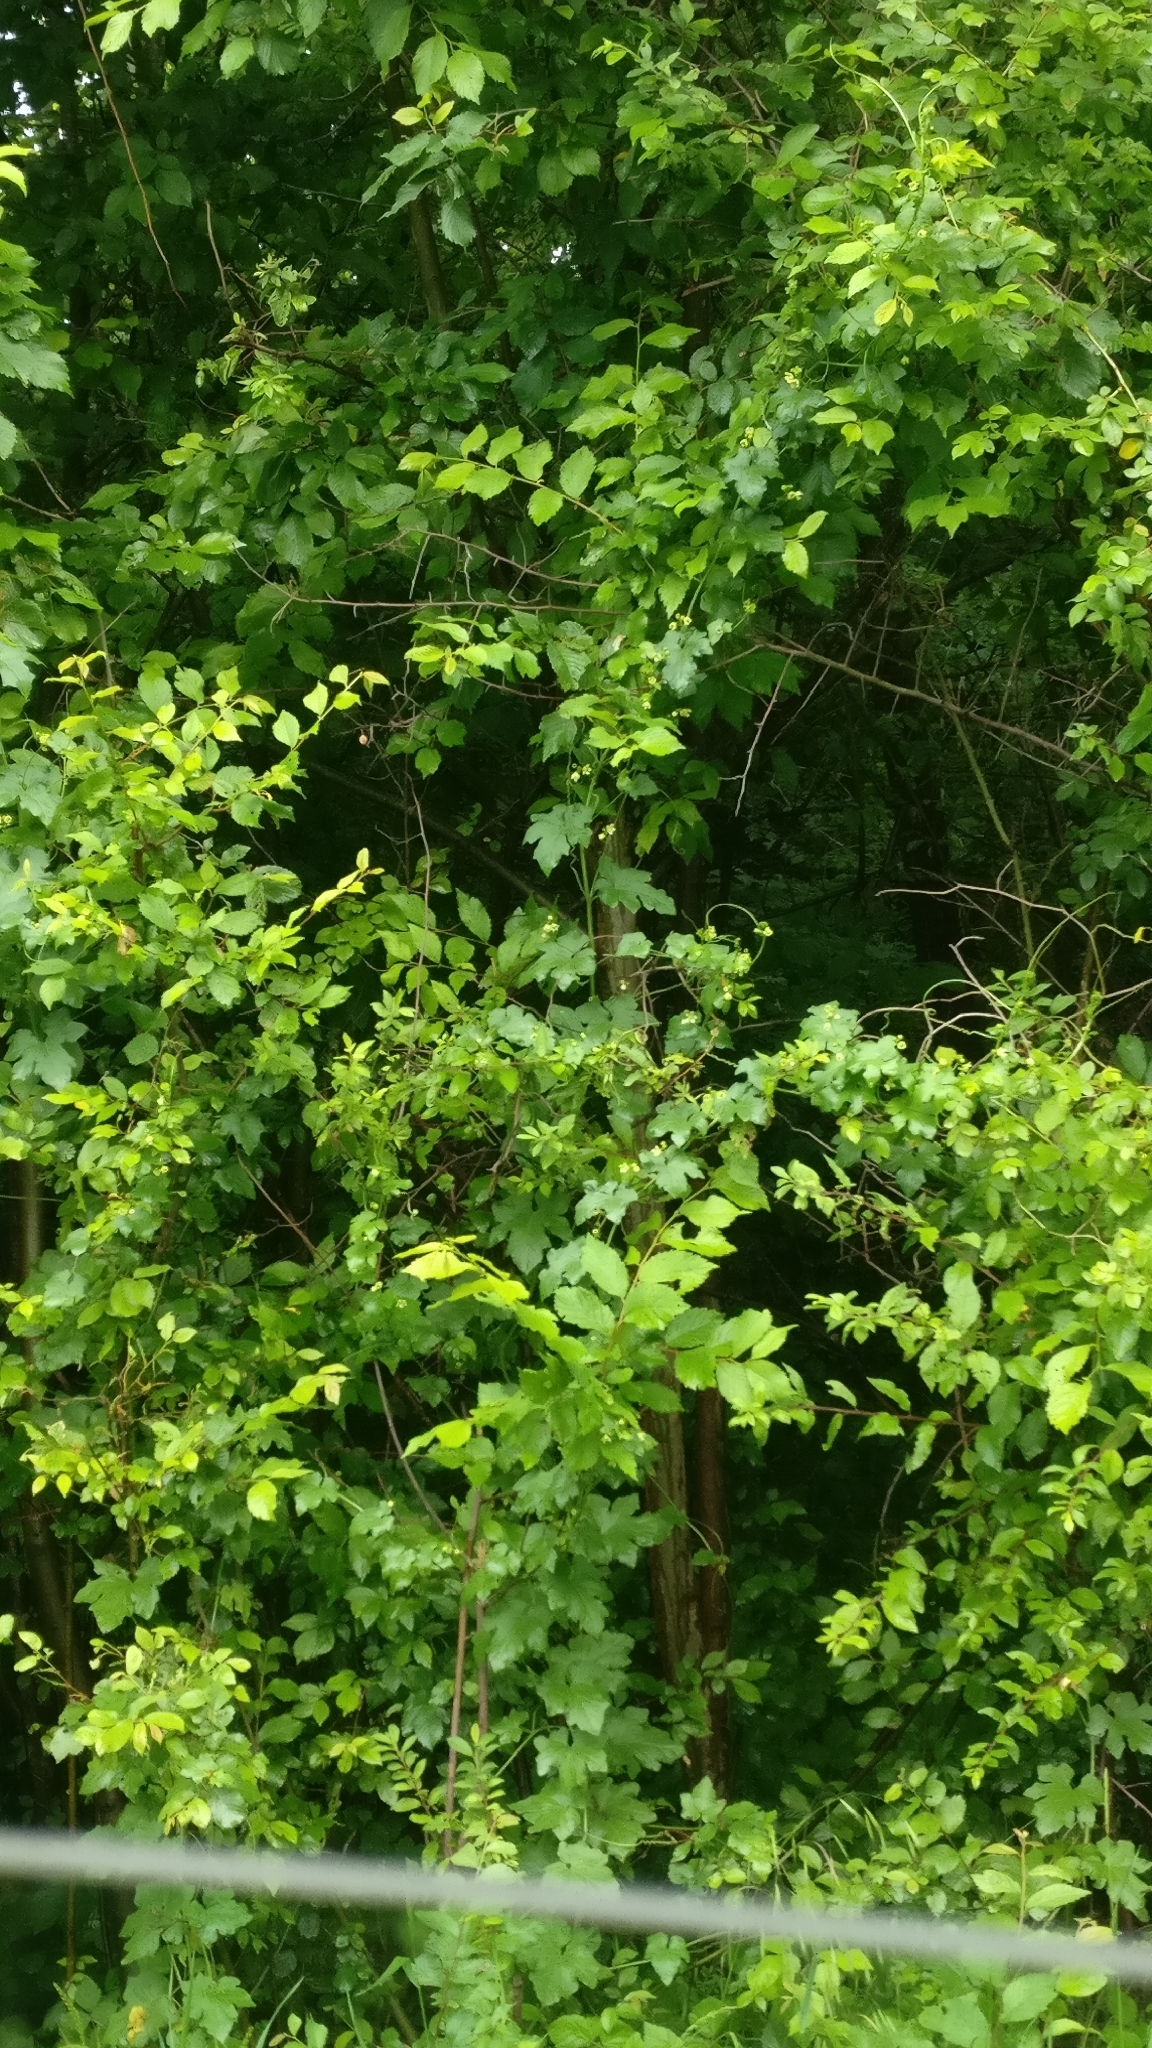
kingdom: Plantae
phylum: Tracheophyta
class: Magnoliopsida
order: Cucurbitales
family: Cucurbitaceae
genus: Bryonia
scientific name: Bryonia cretica
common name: Cretan bryony
